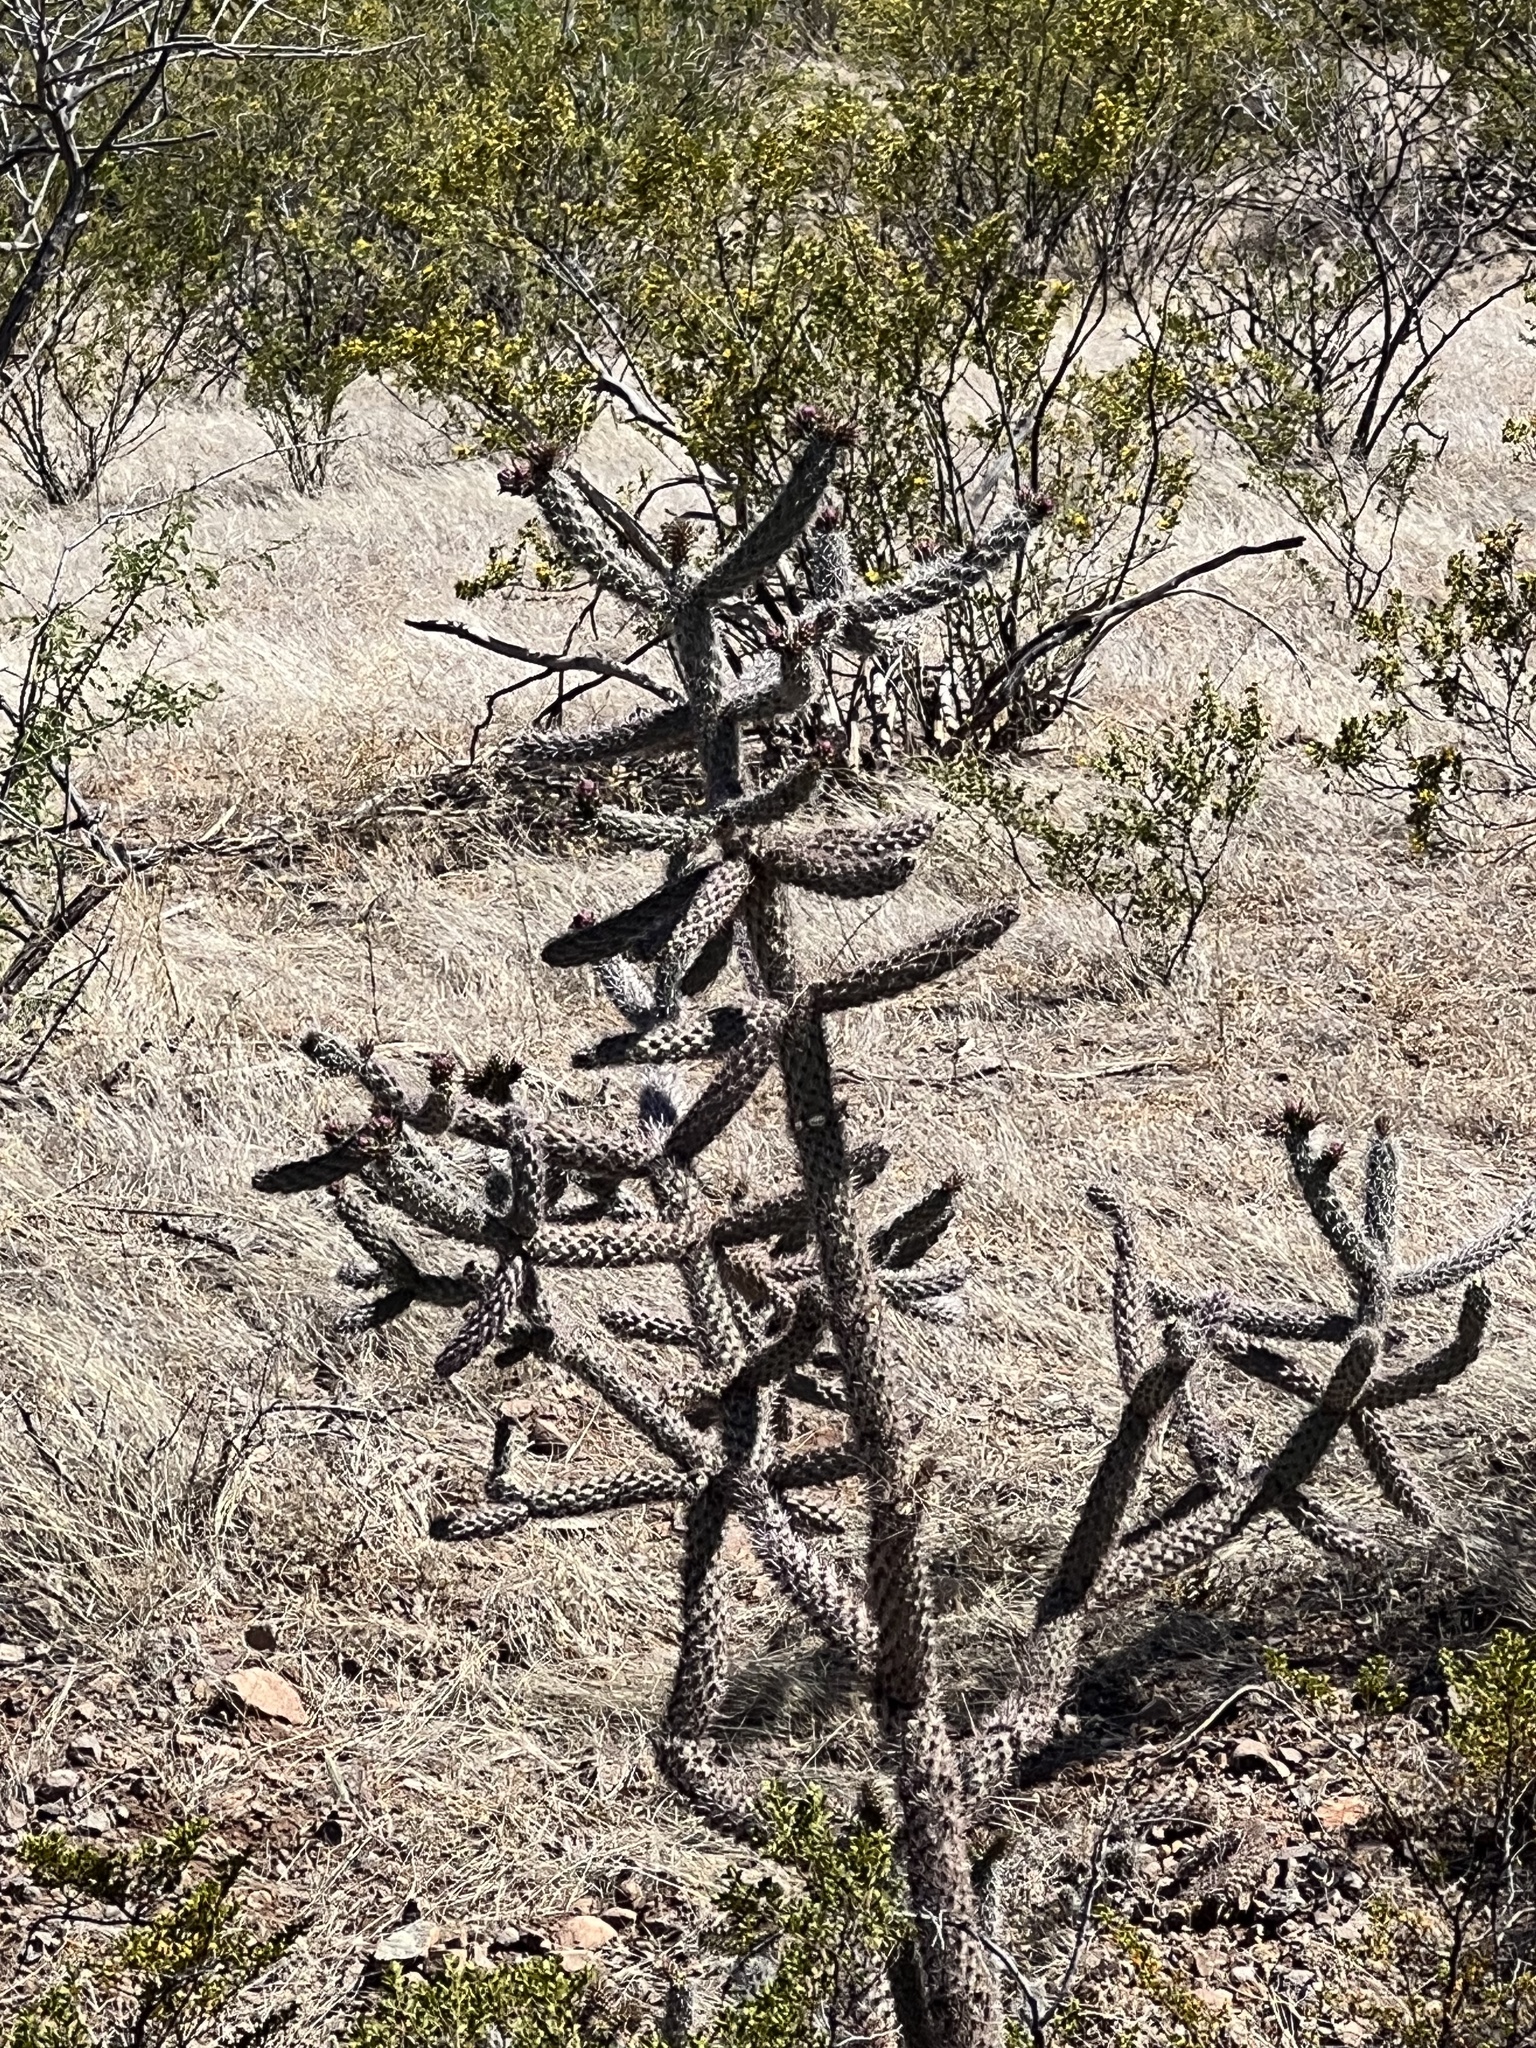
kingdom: Plantae
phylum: Tracheophyta
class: Magnoliopsida
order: Caryophyllales
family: Cactaceae
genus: Cylindropuntia
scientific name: Cylindropuntia imbricata
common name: Candelabrum cactus
